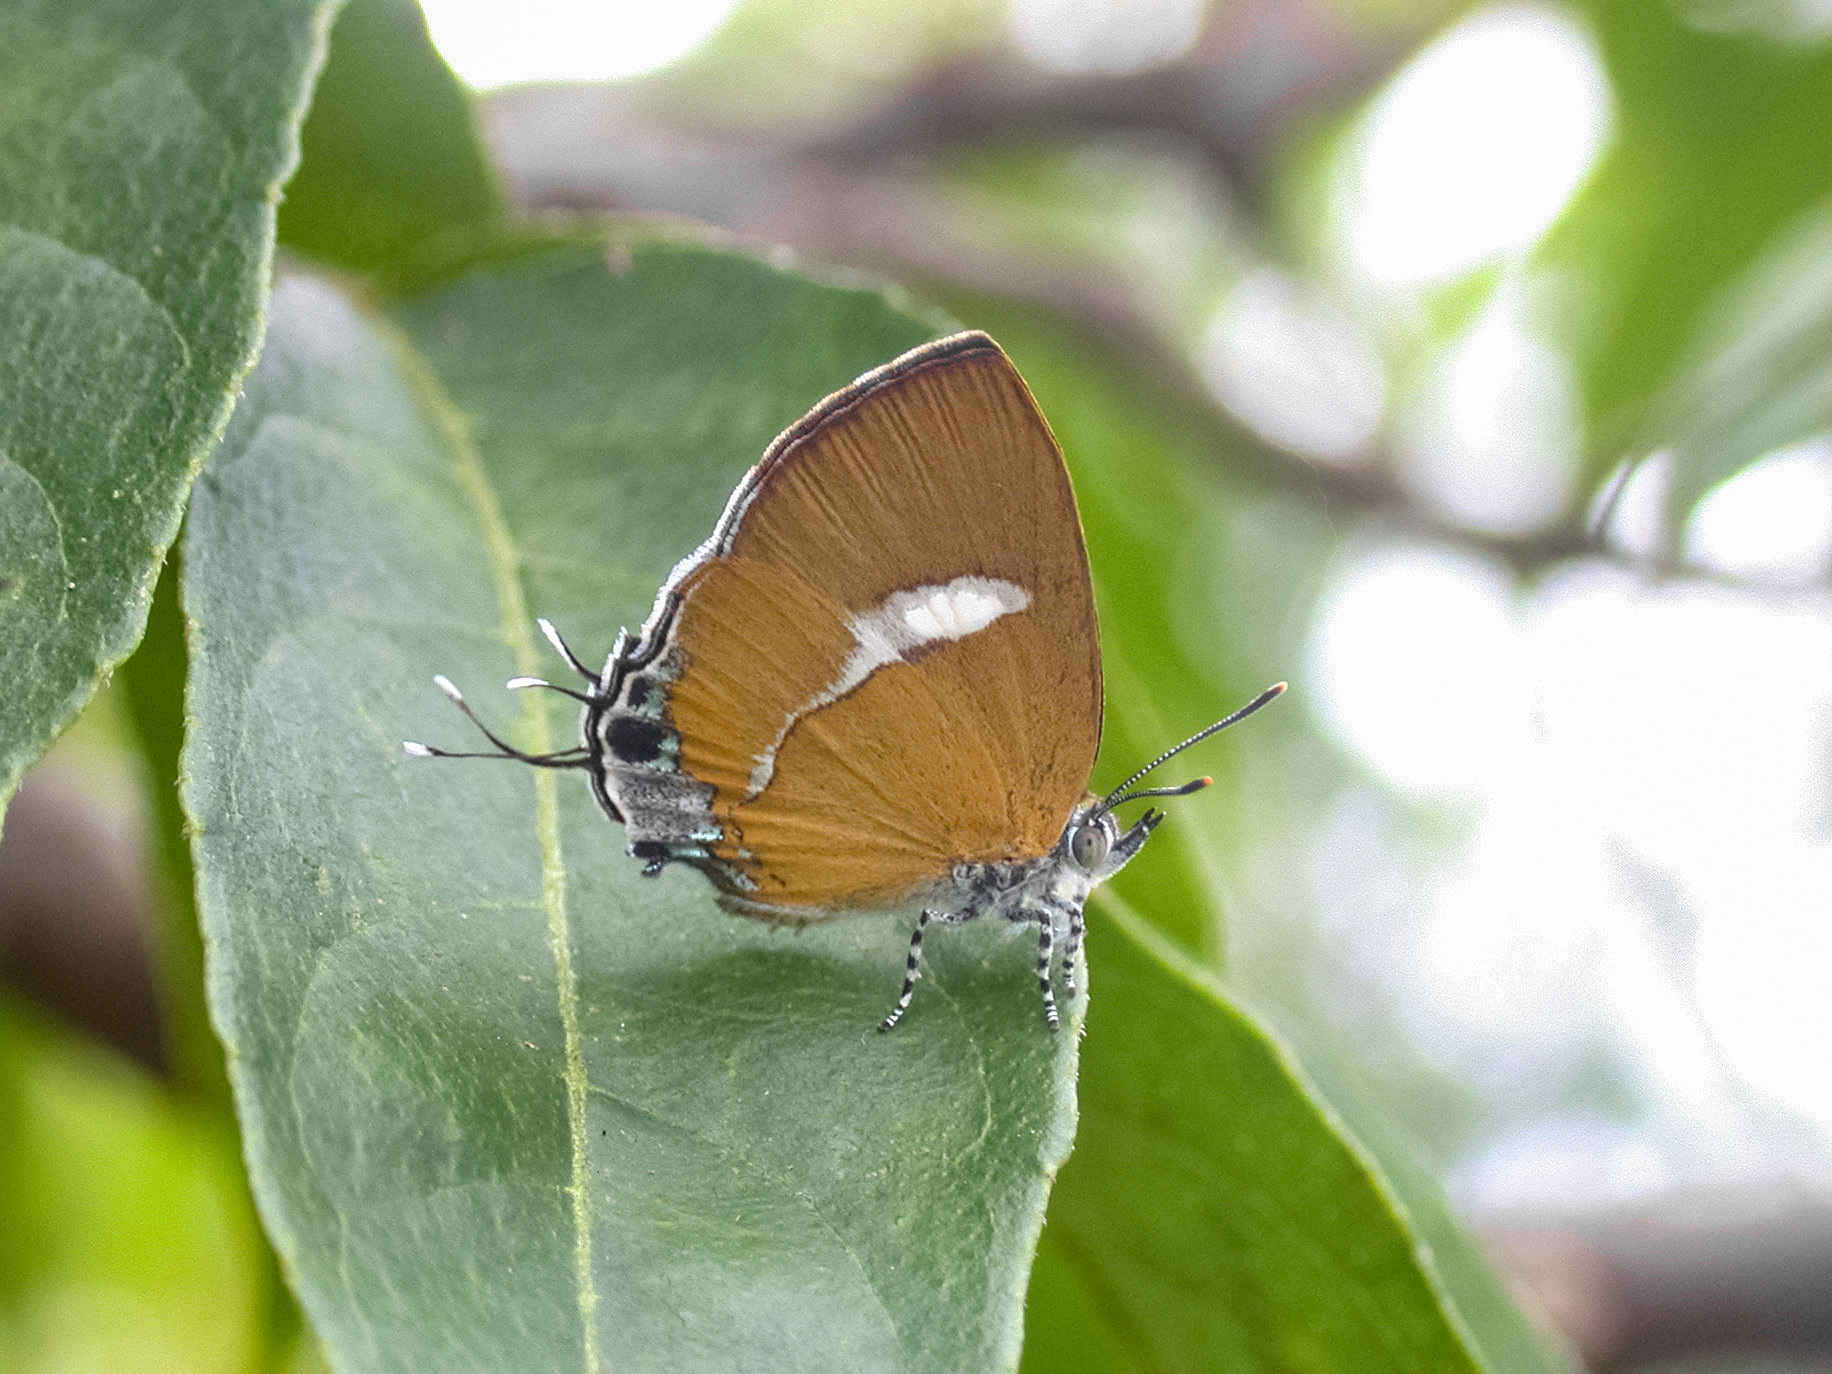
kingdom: Animalia
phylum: Arthropoda
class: Insecta
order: Lepidoptera
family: Lycaenidae
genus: Horaga
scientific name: Horaga syrinx
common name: Ambon onyx
